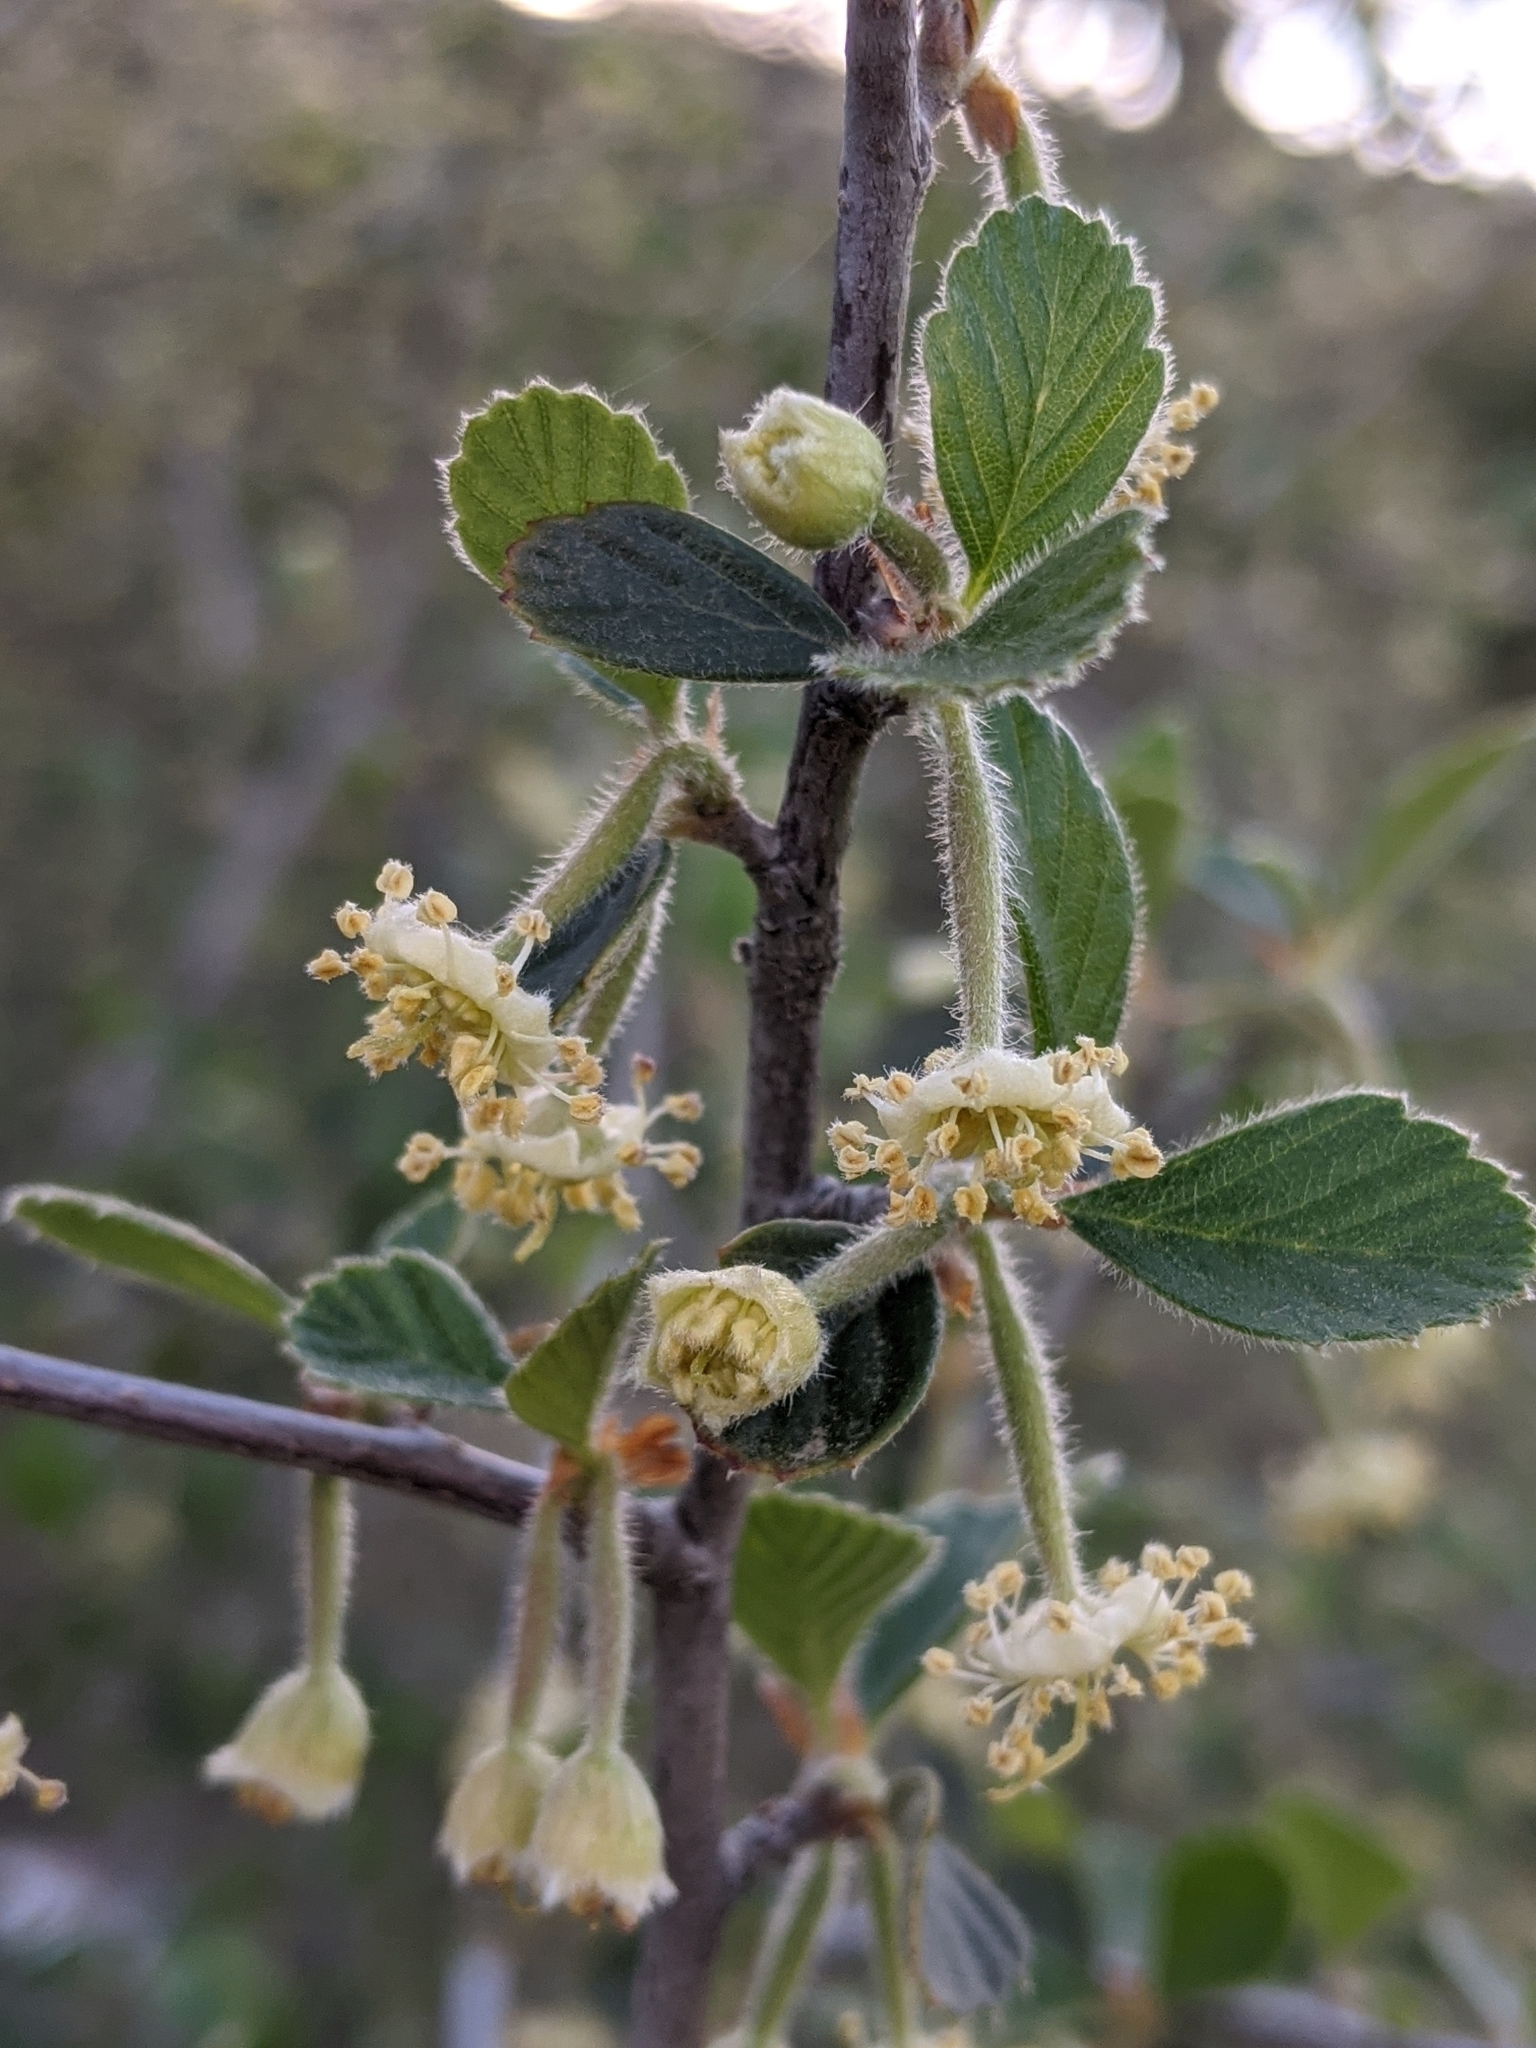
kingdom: Plantae
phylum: Tracheophyta
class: Magnoliopsida
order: Rosales
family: Rosaceae
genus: Cercocarpus
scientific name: Cercocarpus betuloides
